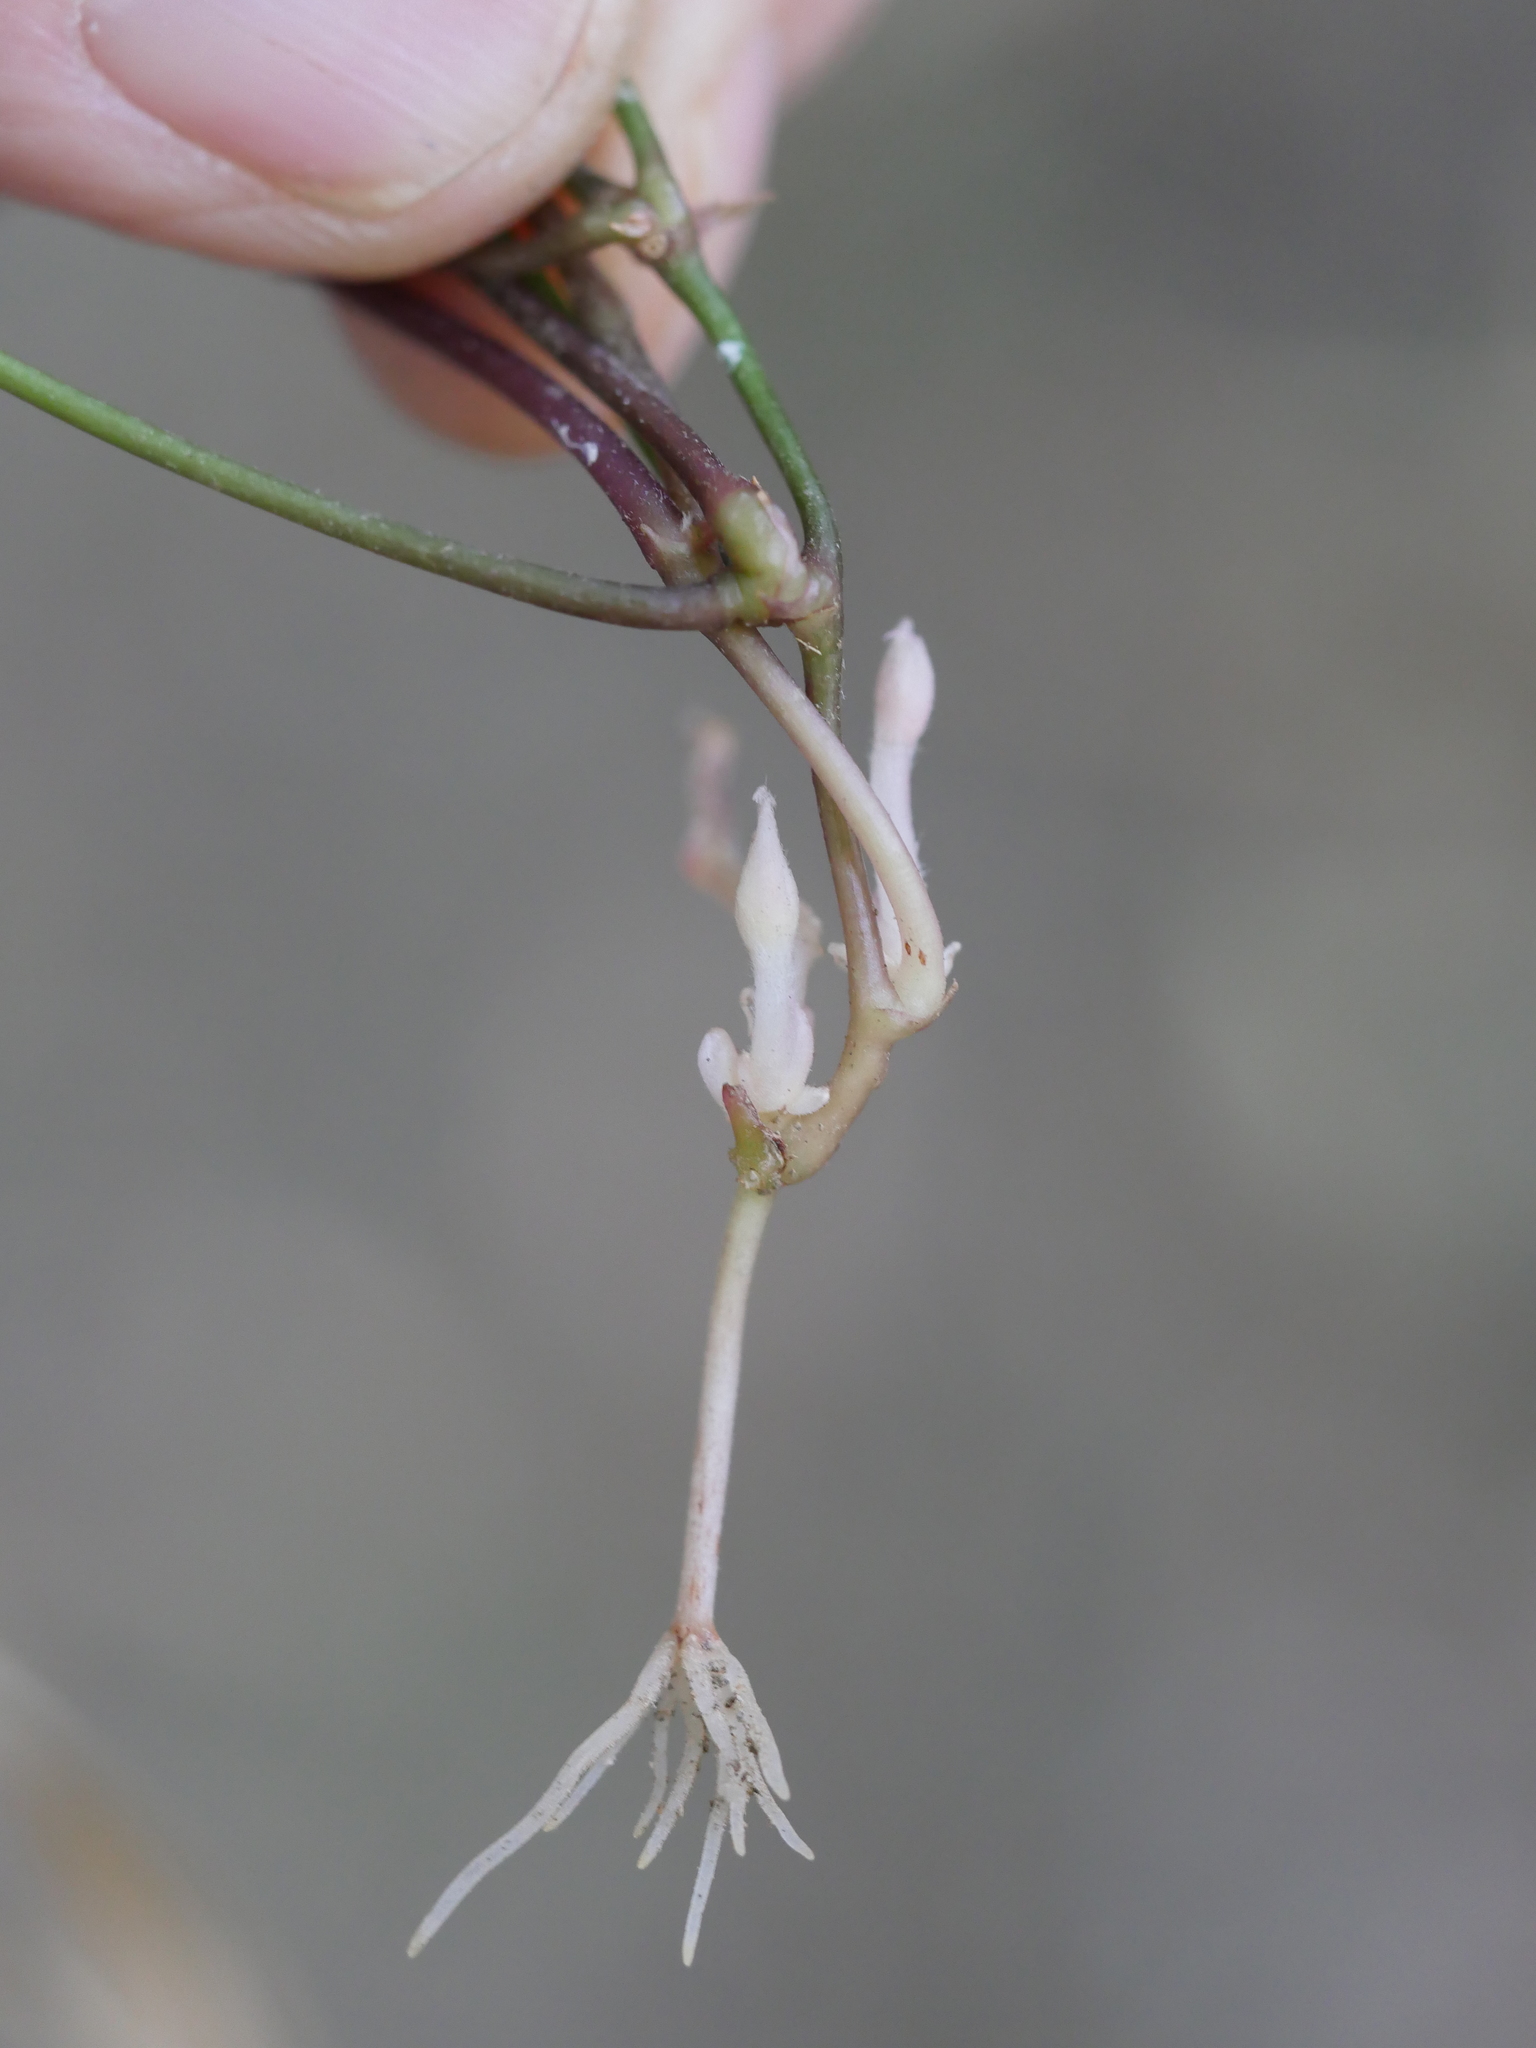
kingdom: Plantae
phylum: Tracheophyta
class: Magnoliopsida
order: Oxalidales
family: Oxalidaceae
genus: Oxalis
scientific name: Oxalis incarnata
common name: Pale pink-sorrel
